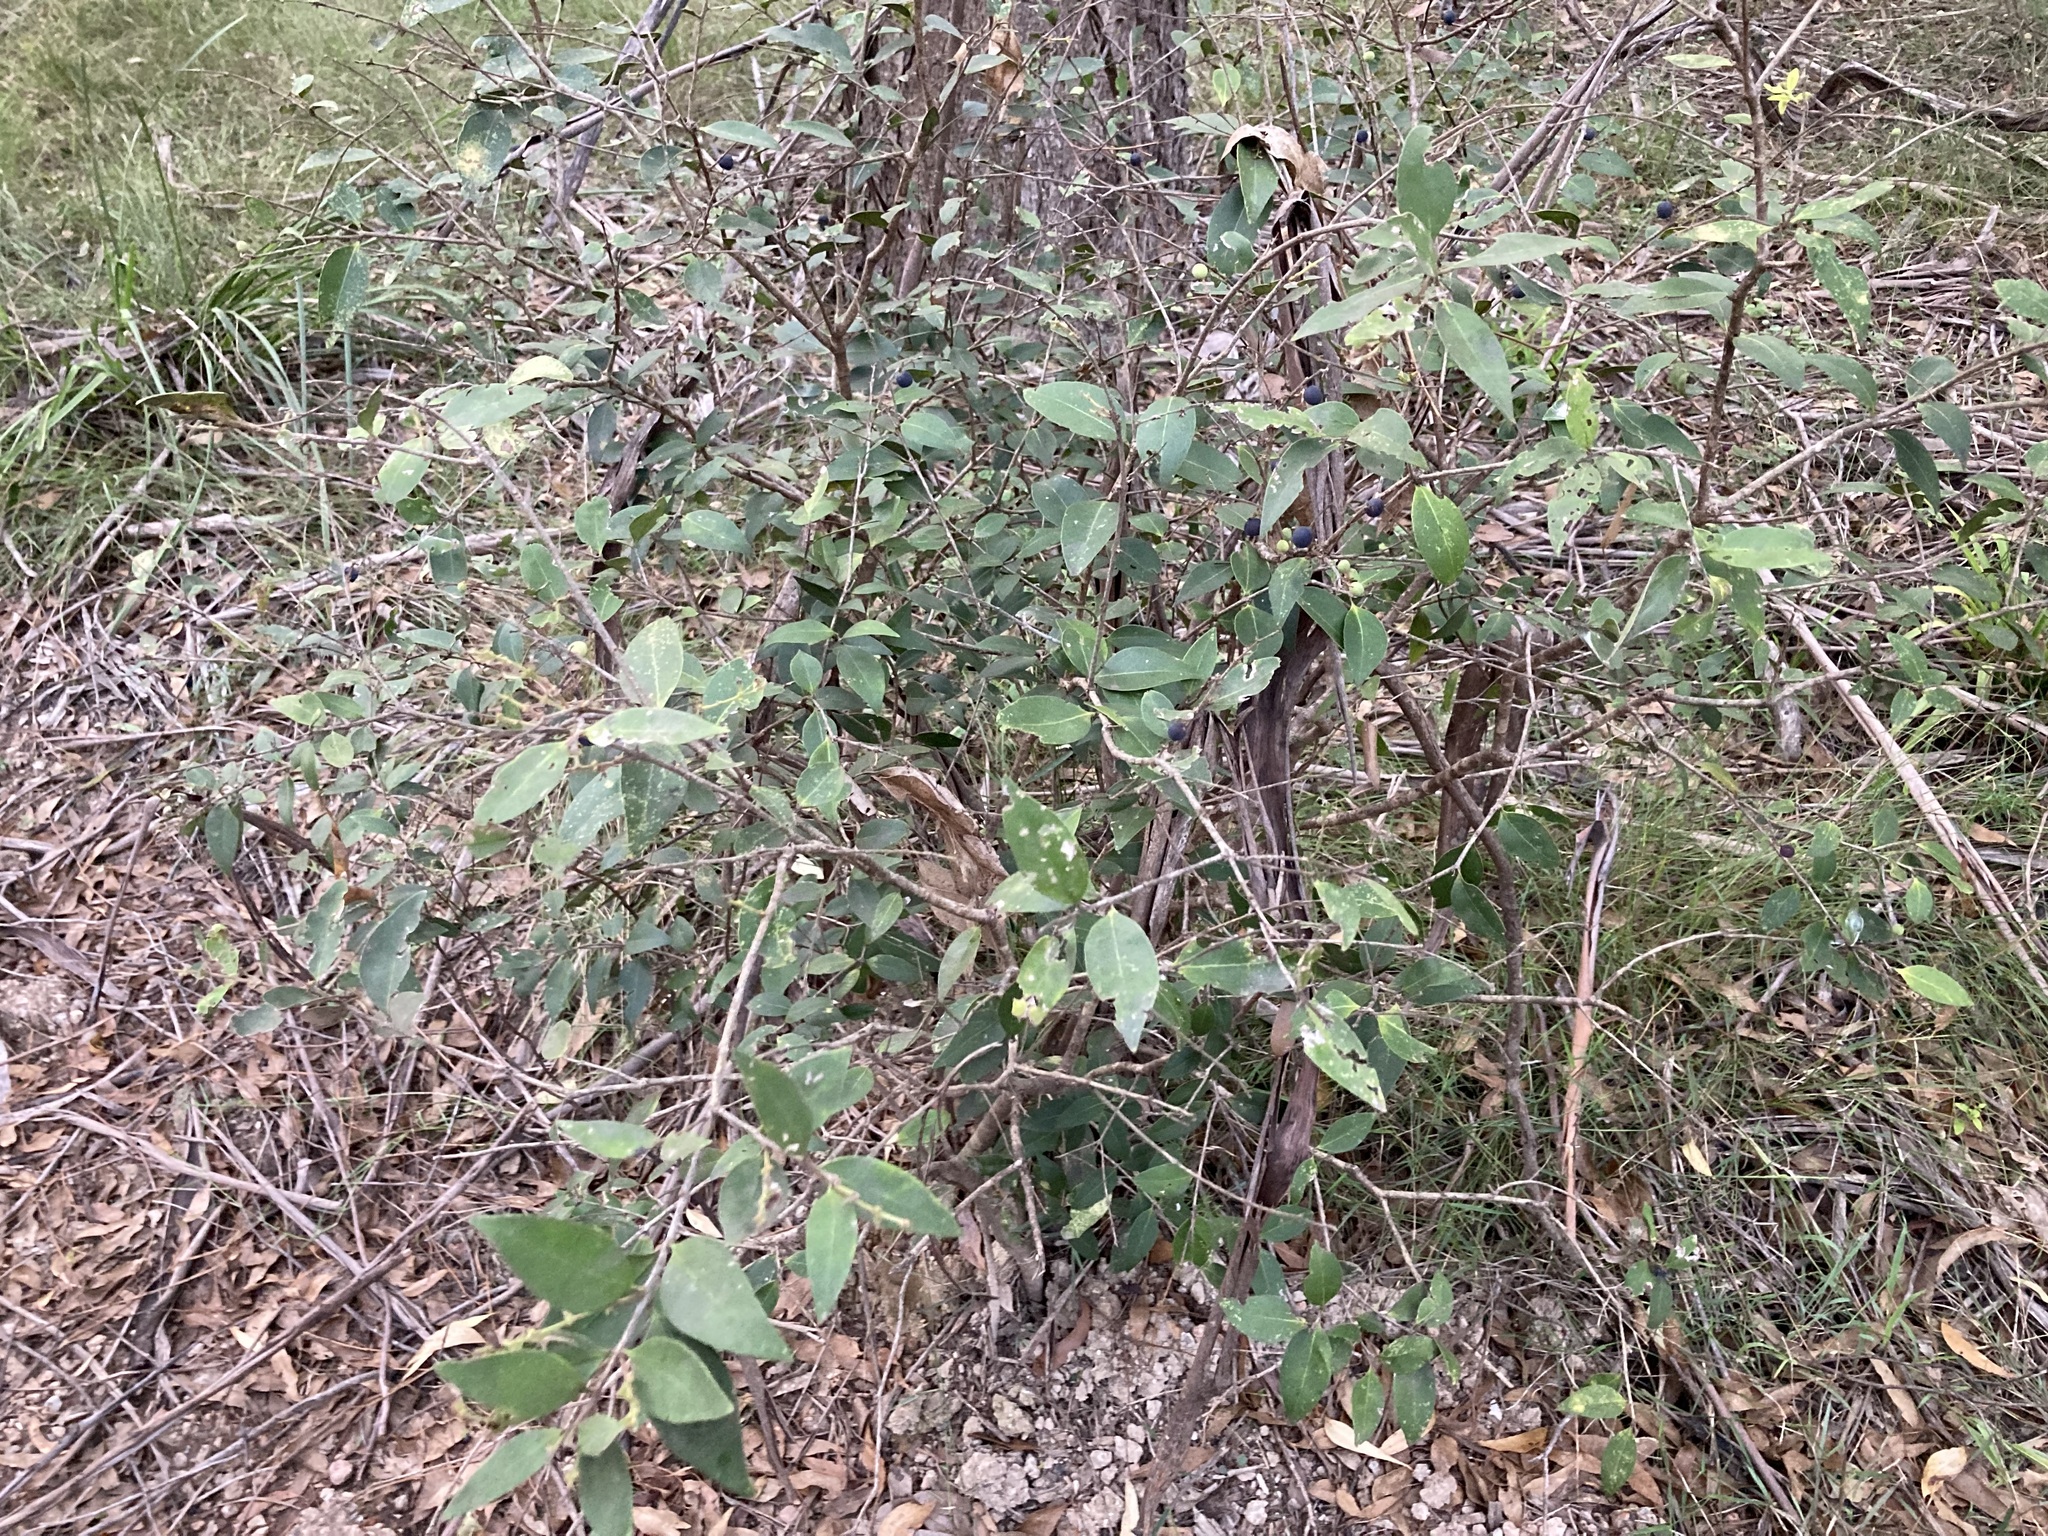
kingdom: Plantae
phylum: Tracheophyta
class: Magnoliopsida
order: Lamiales
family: Oleaceae
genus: Notelaea
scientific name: Notelaea ovata
